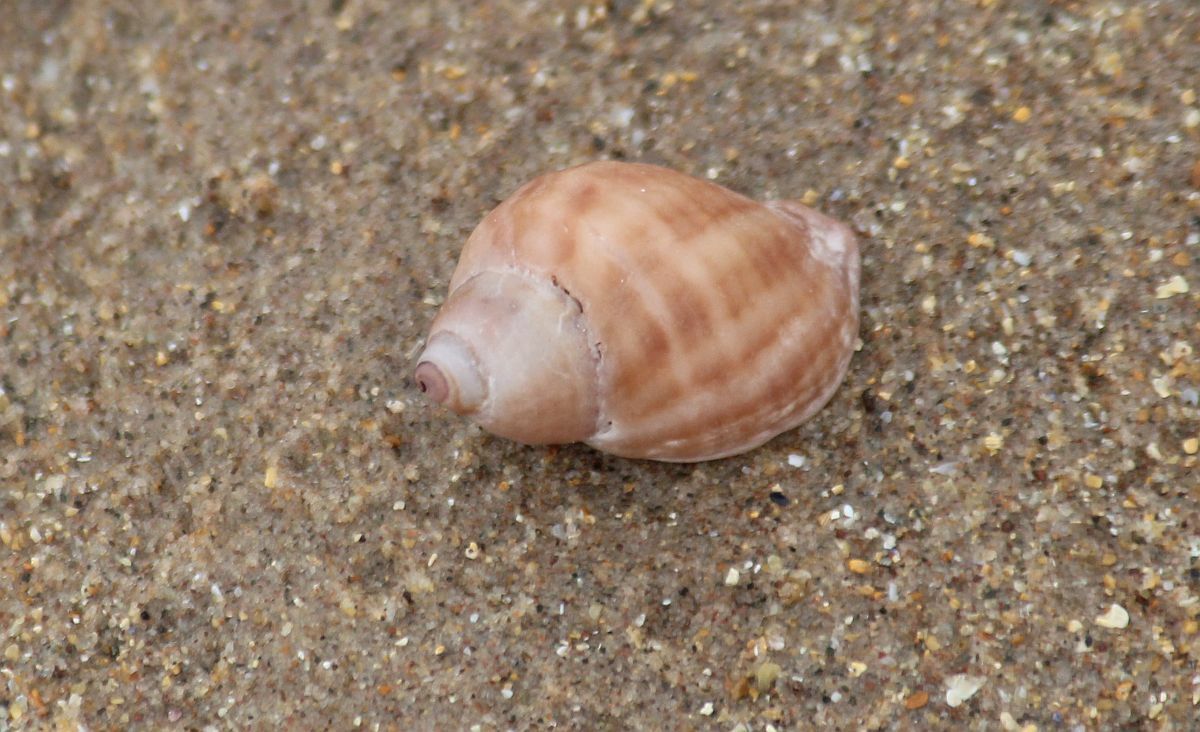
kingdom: Animalia
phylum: Mollusca
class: Gastropoda
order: Neogastropoda
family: Muricidae
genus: Nucella
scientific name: Nucella lapillus
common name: Dog whelk
